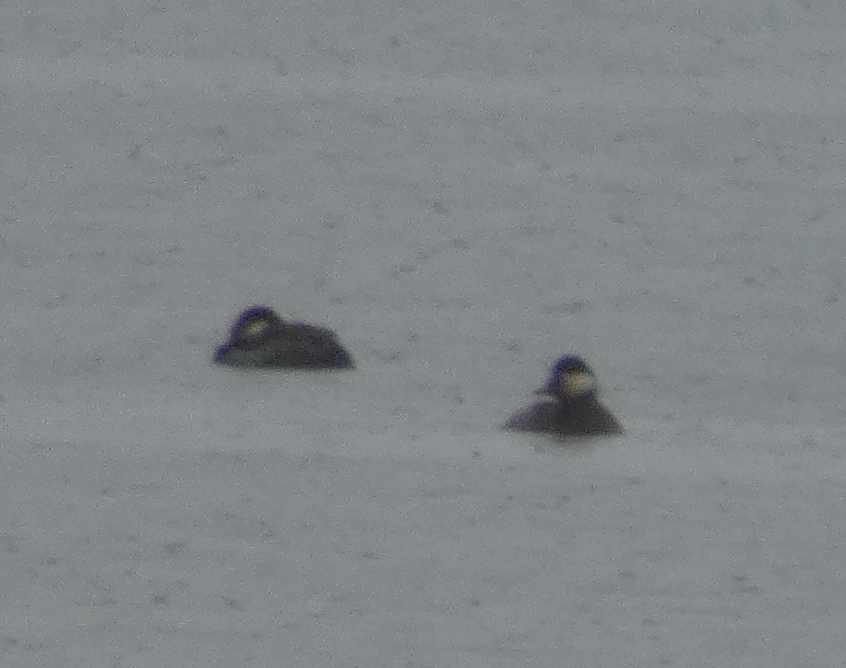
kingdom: Animalia
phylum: Chordata
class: Aves
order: Anseriformes
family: Anatidae
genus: Oxyura
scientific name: Oxyura jamaicensis
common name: Ruddy duck
